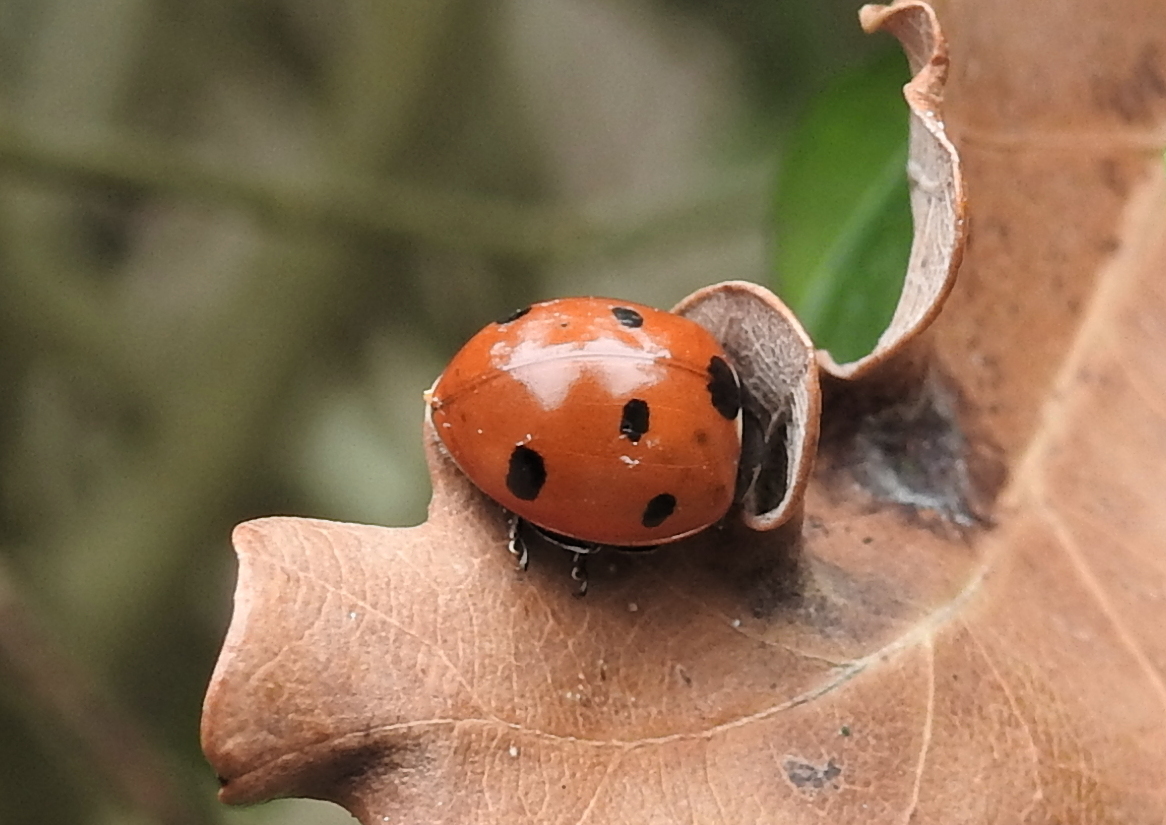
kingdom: Animalia
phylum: Arthropoda
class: Insecta
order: Coleoptera
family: Coccinellidae
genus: Coccinella
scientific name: Coccinella septempunctata
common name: Sevenspotted lady beetle
